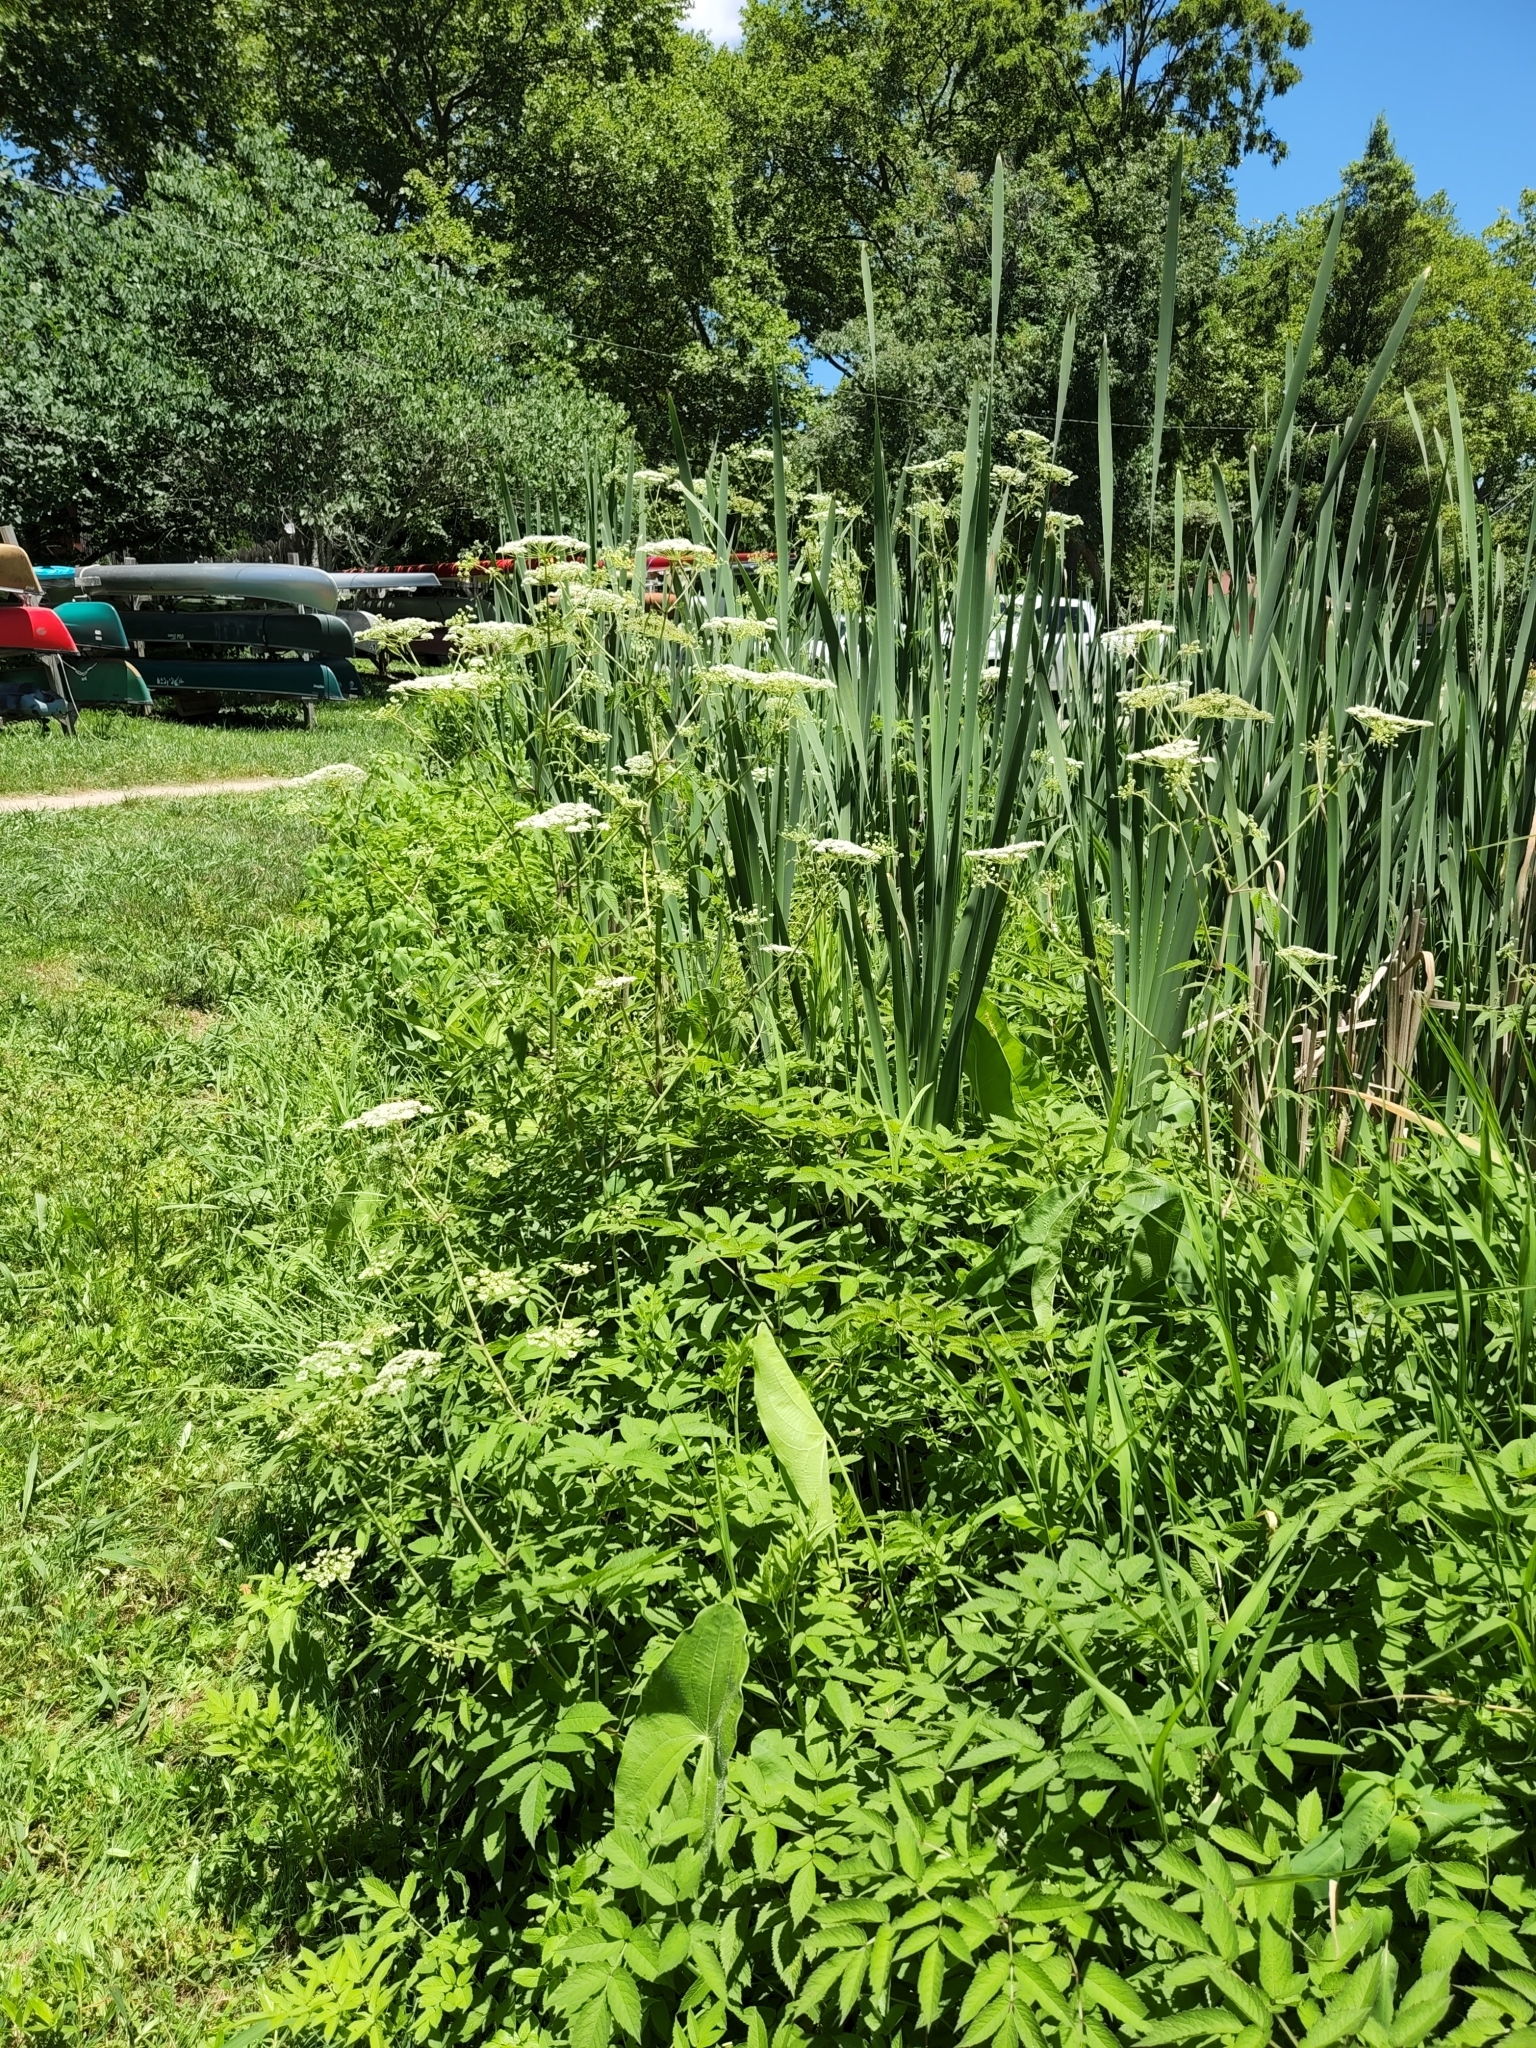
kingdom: Plantae
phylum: Tracheophyta
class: Magnoliopsida
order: Apiales
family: Apiaceae
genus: Cicuta
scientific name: Cicuta maculata
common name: Spotted cowbane
